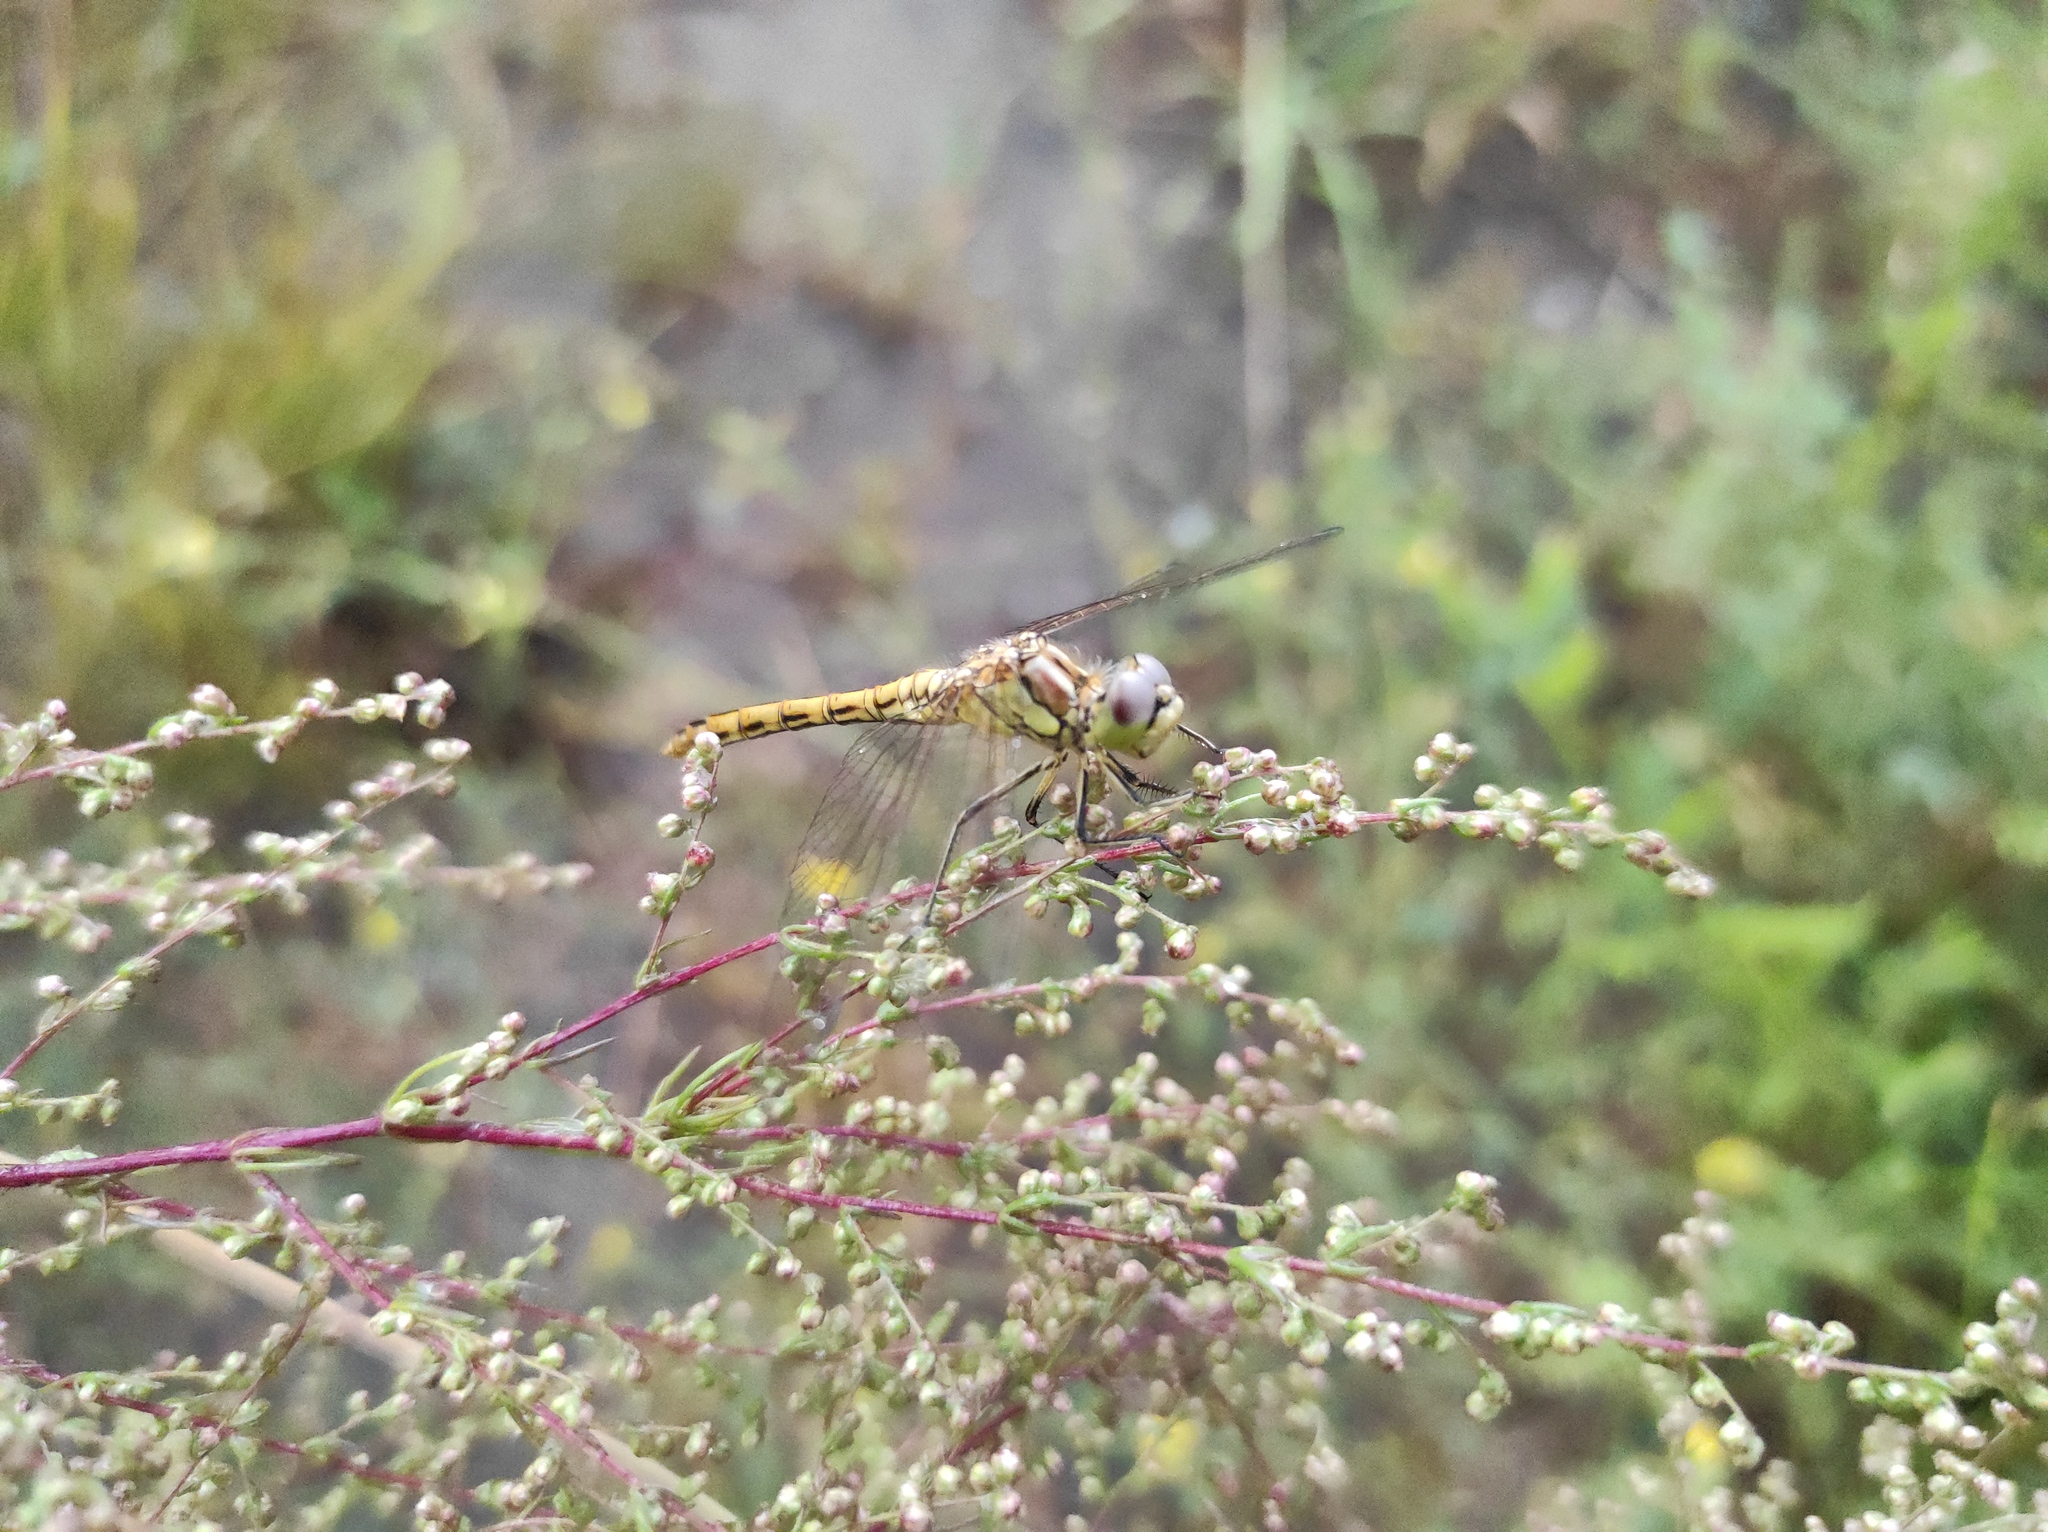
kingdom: Animalia
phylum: Arthropoda
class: Insecta
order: Odonata
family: Libellulidae
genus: Sympetrum
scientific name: Sympetrum vulgatum
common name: Vagrant darter
